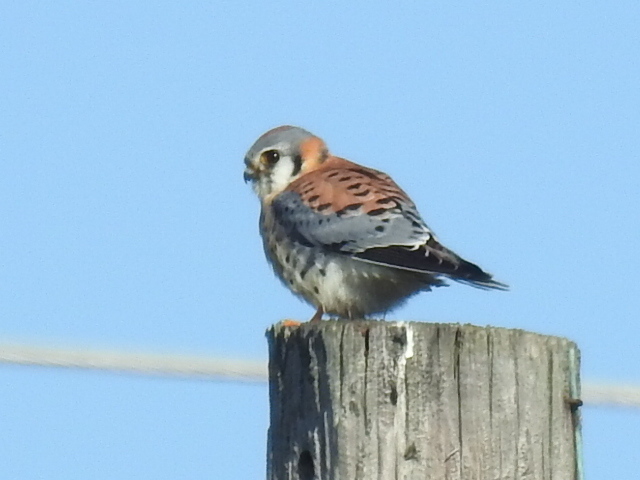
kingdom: Animalia
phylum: Chordata
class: Aves
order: Falconiformes
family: Falconidae
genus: Falco
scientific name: Falco sparverius
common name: American kestrel
